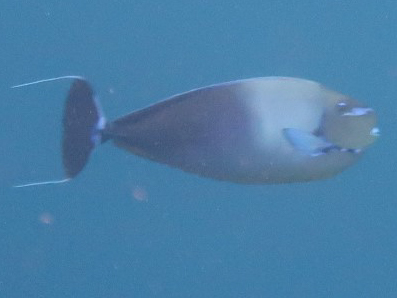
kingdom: Animalia
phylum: Chordata
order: Perciformes
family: Acanthuridae
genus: Naso
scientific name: Naso vlamingii
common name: Big-nose unicorn
